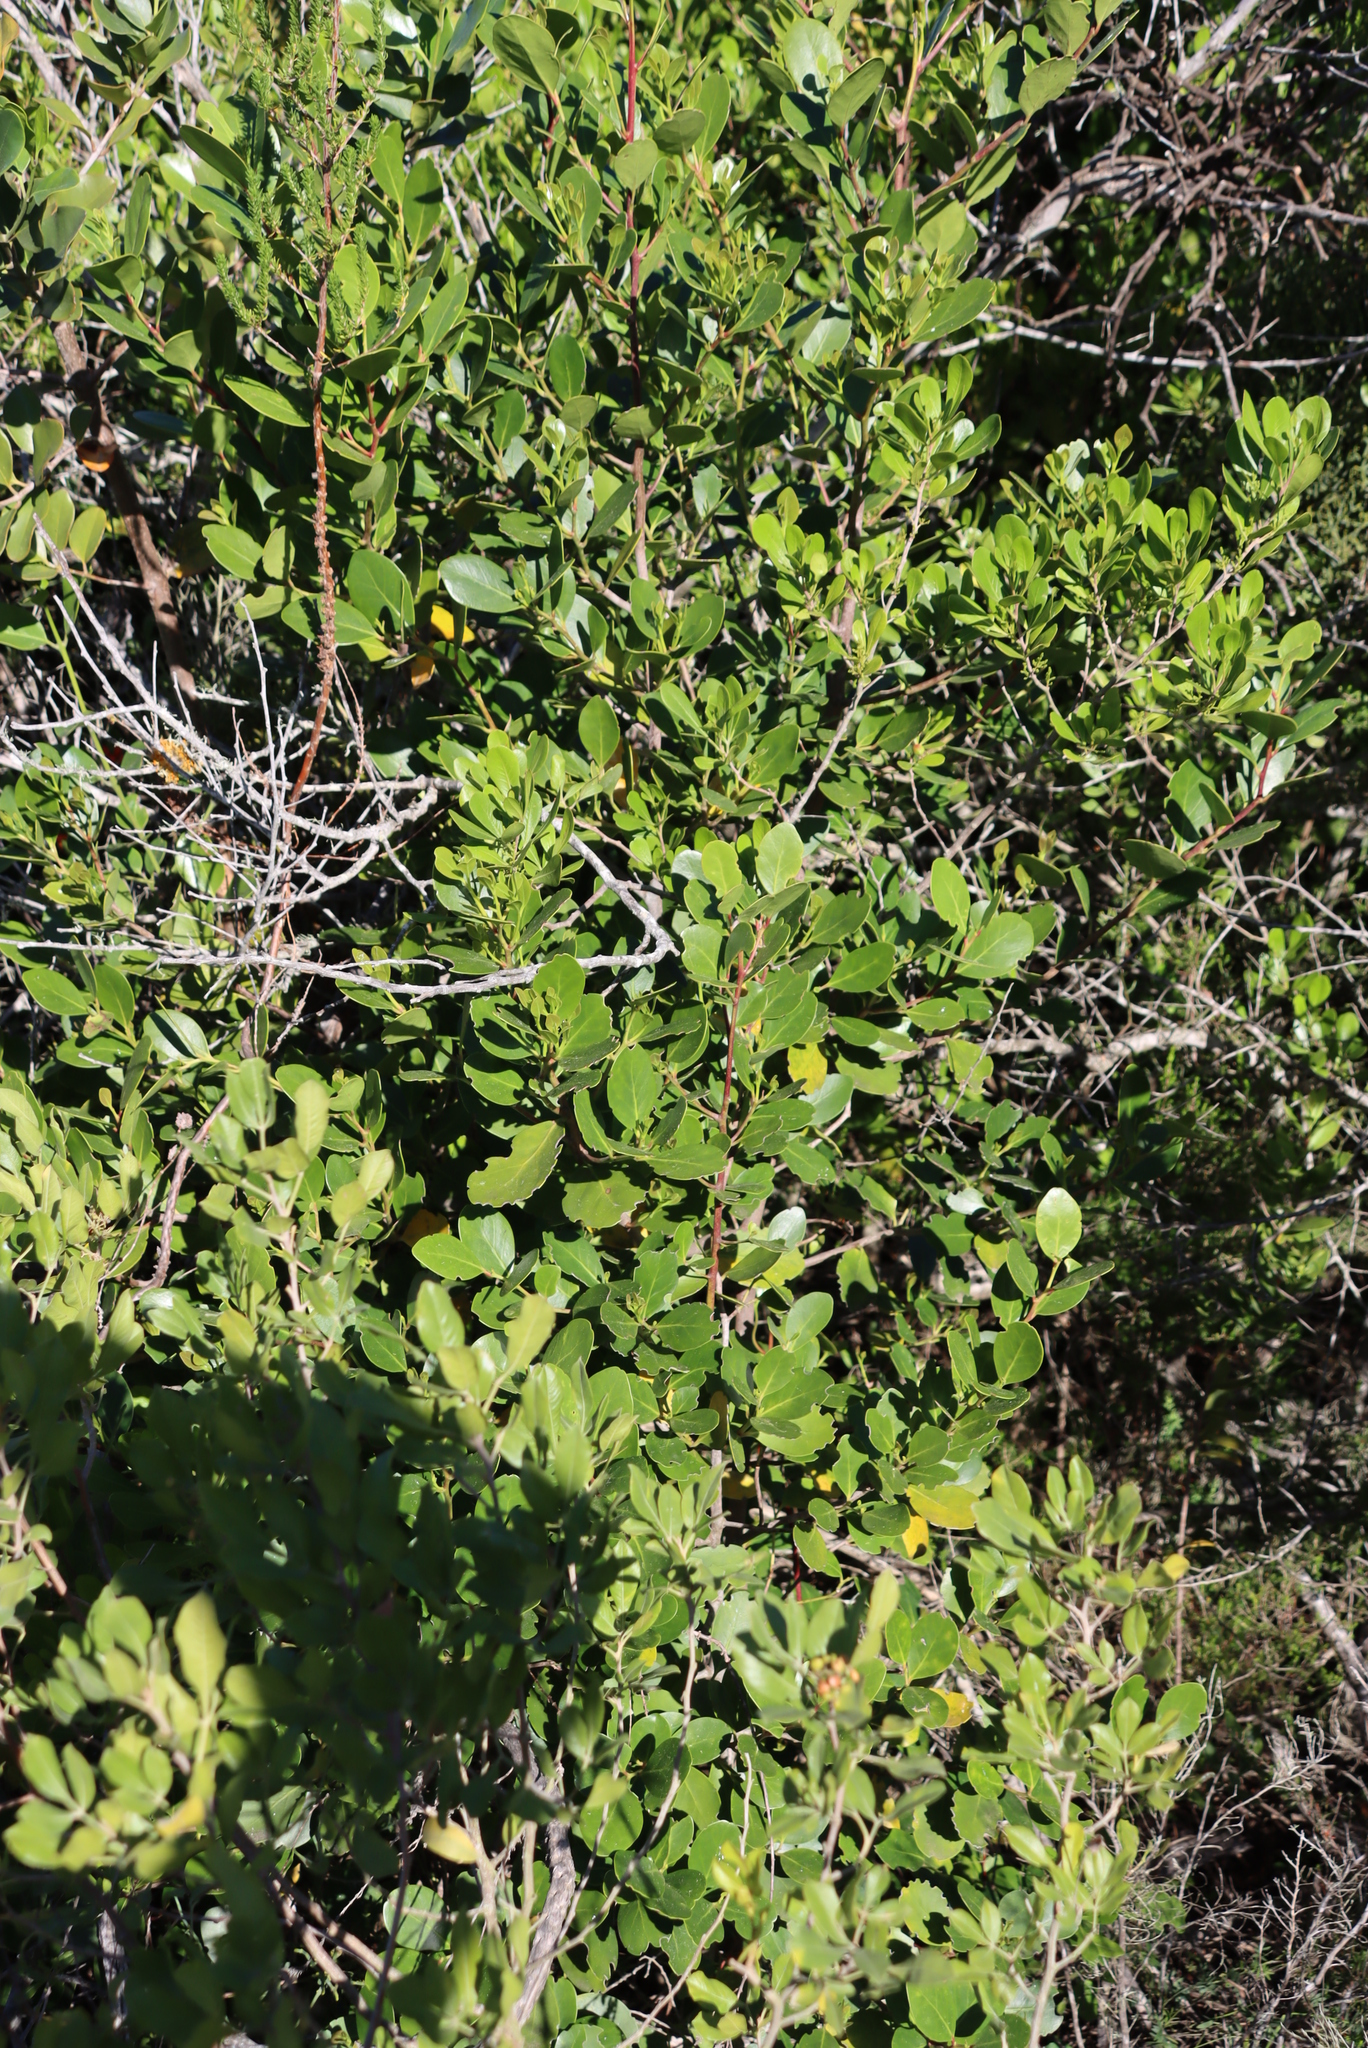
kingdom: Plantae
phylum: Tracheophyta
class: Magnoliopsida
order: Celastrales
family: Celastraceae
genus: Pterocelastrus
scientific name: Pterocelastrus tricuspidatus
